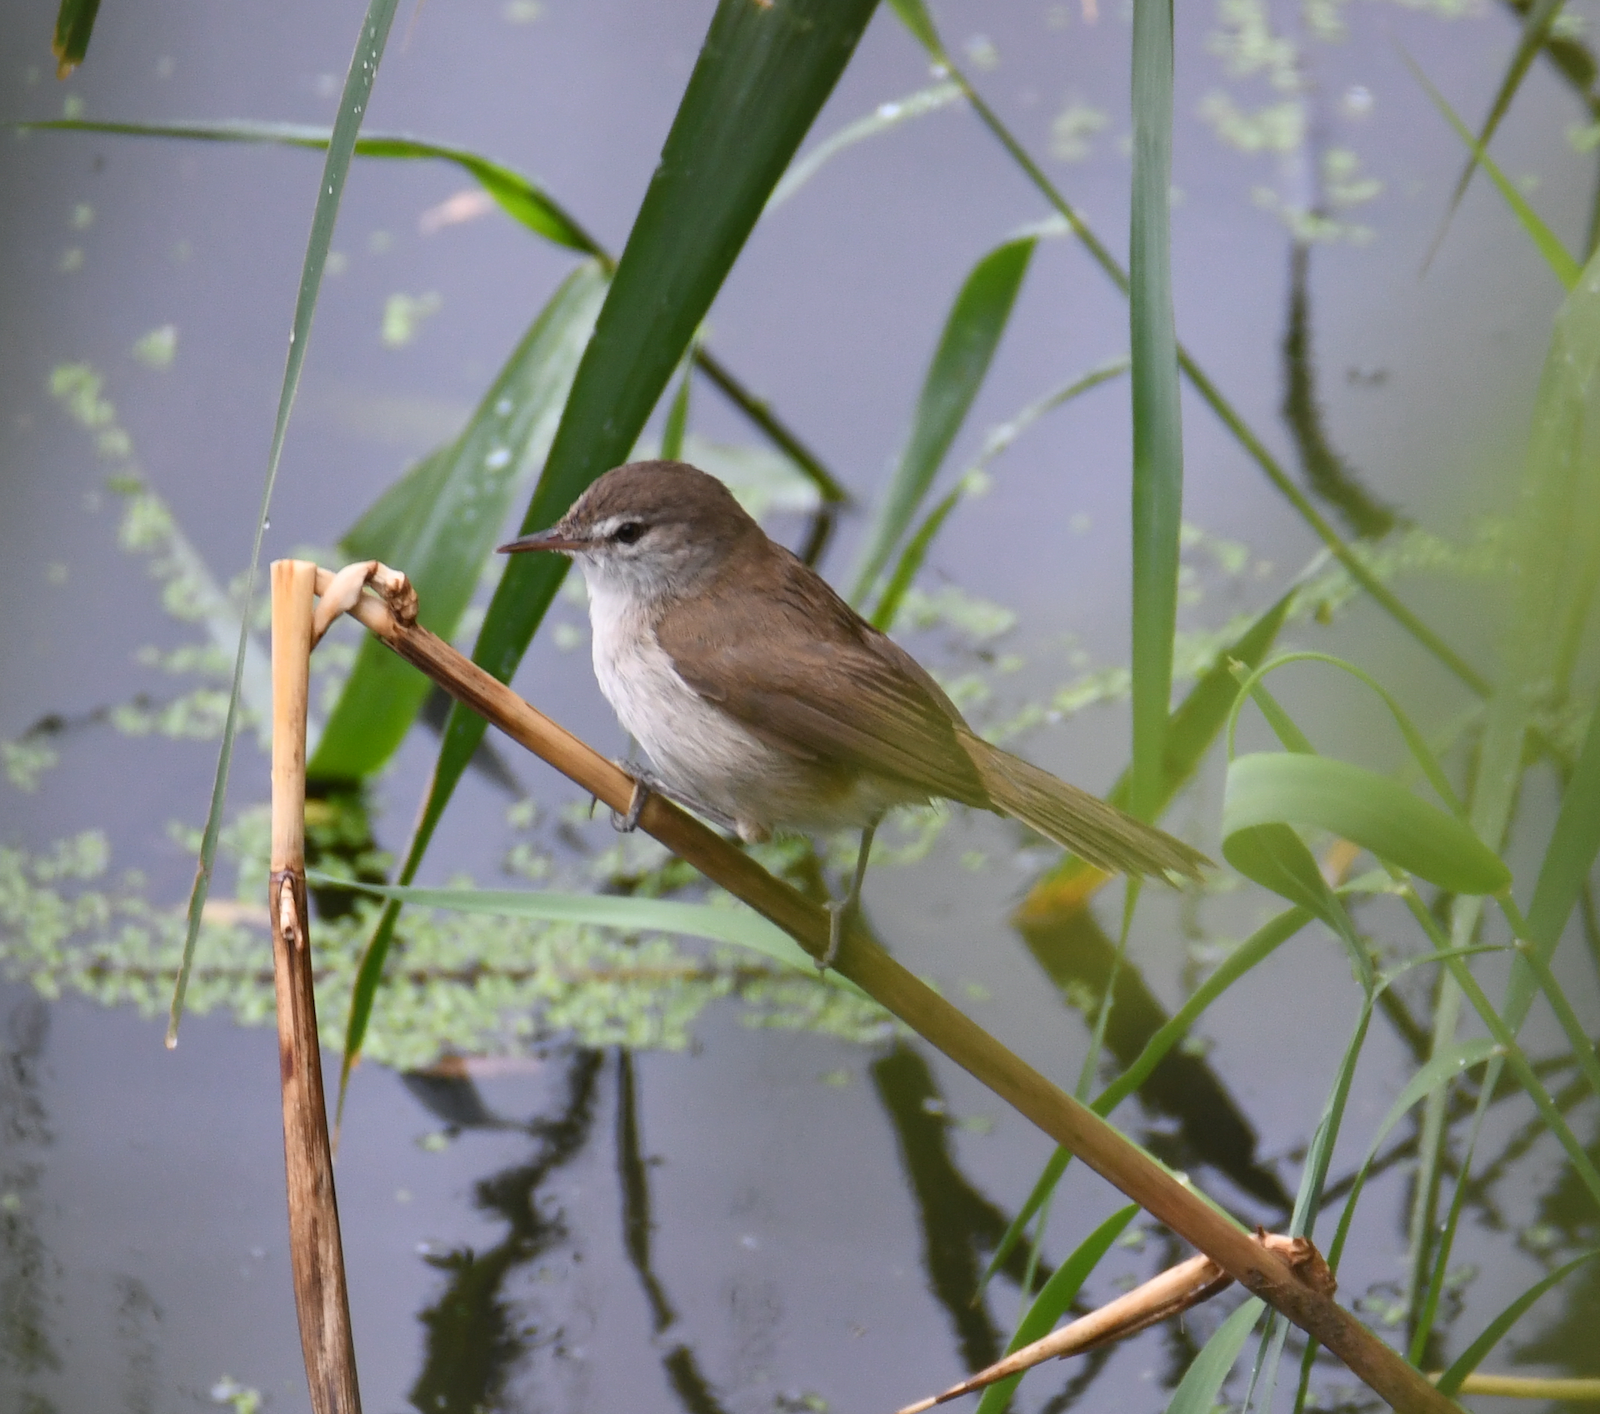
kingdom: Animalia
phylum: Chordata
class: Aves
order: Passeriformes
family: Acrocephalidae
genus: Acrocephalus
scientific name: Acrocephalus gracilirostris
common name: Lesser swamp warbler
